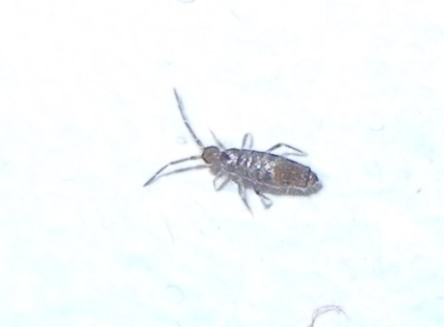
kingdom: Animalia
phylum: Arthropoda
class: Collembola
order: Entomobryomorpha
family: Entomobryidae
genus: Willowsia
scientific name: Willowsia nigromaculata
